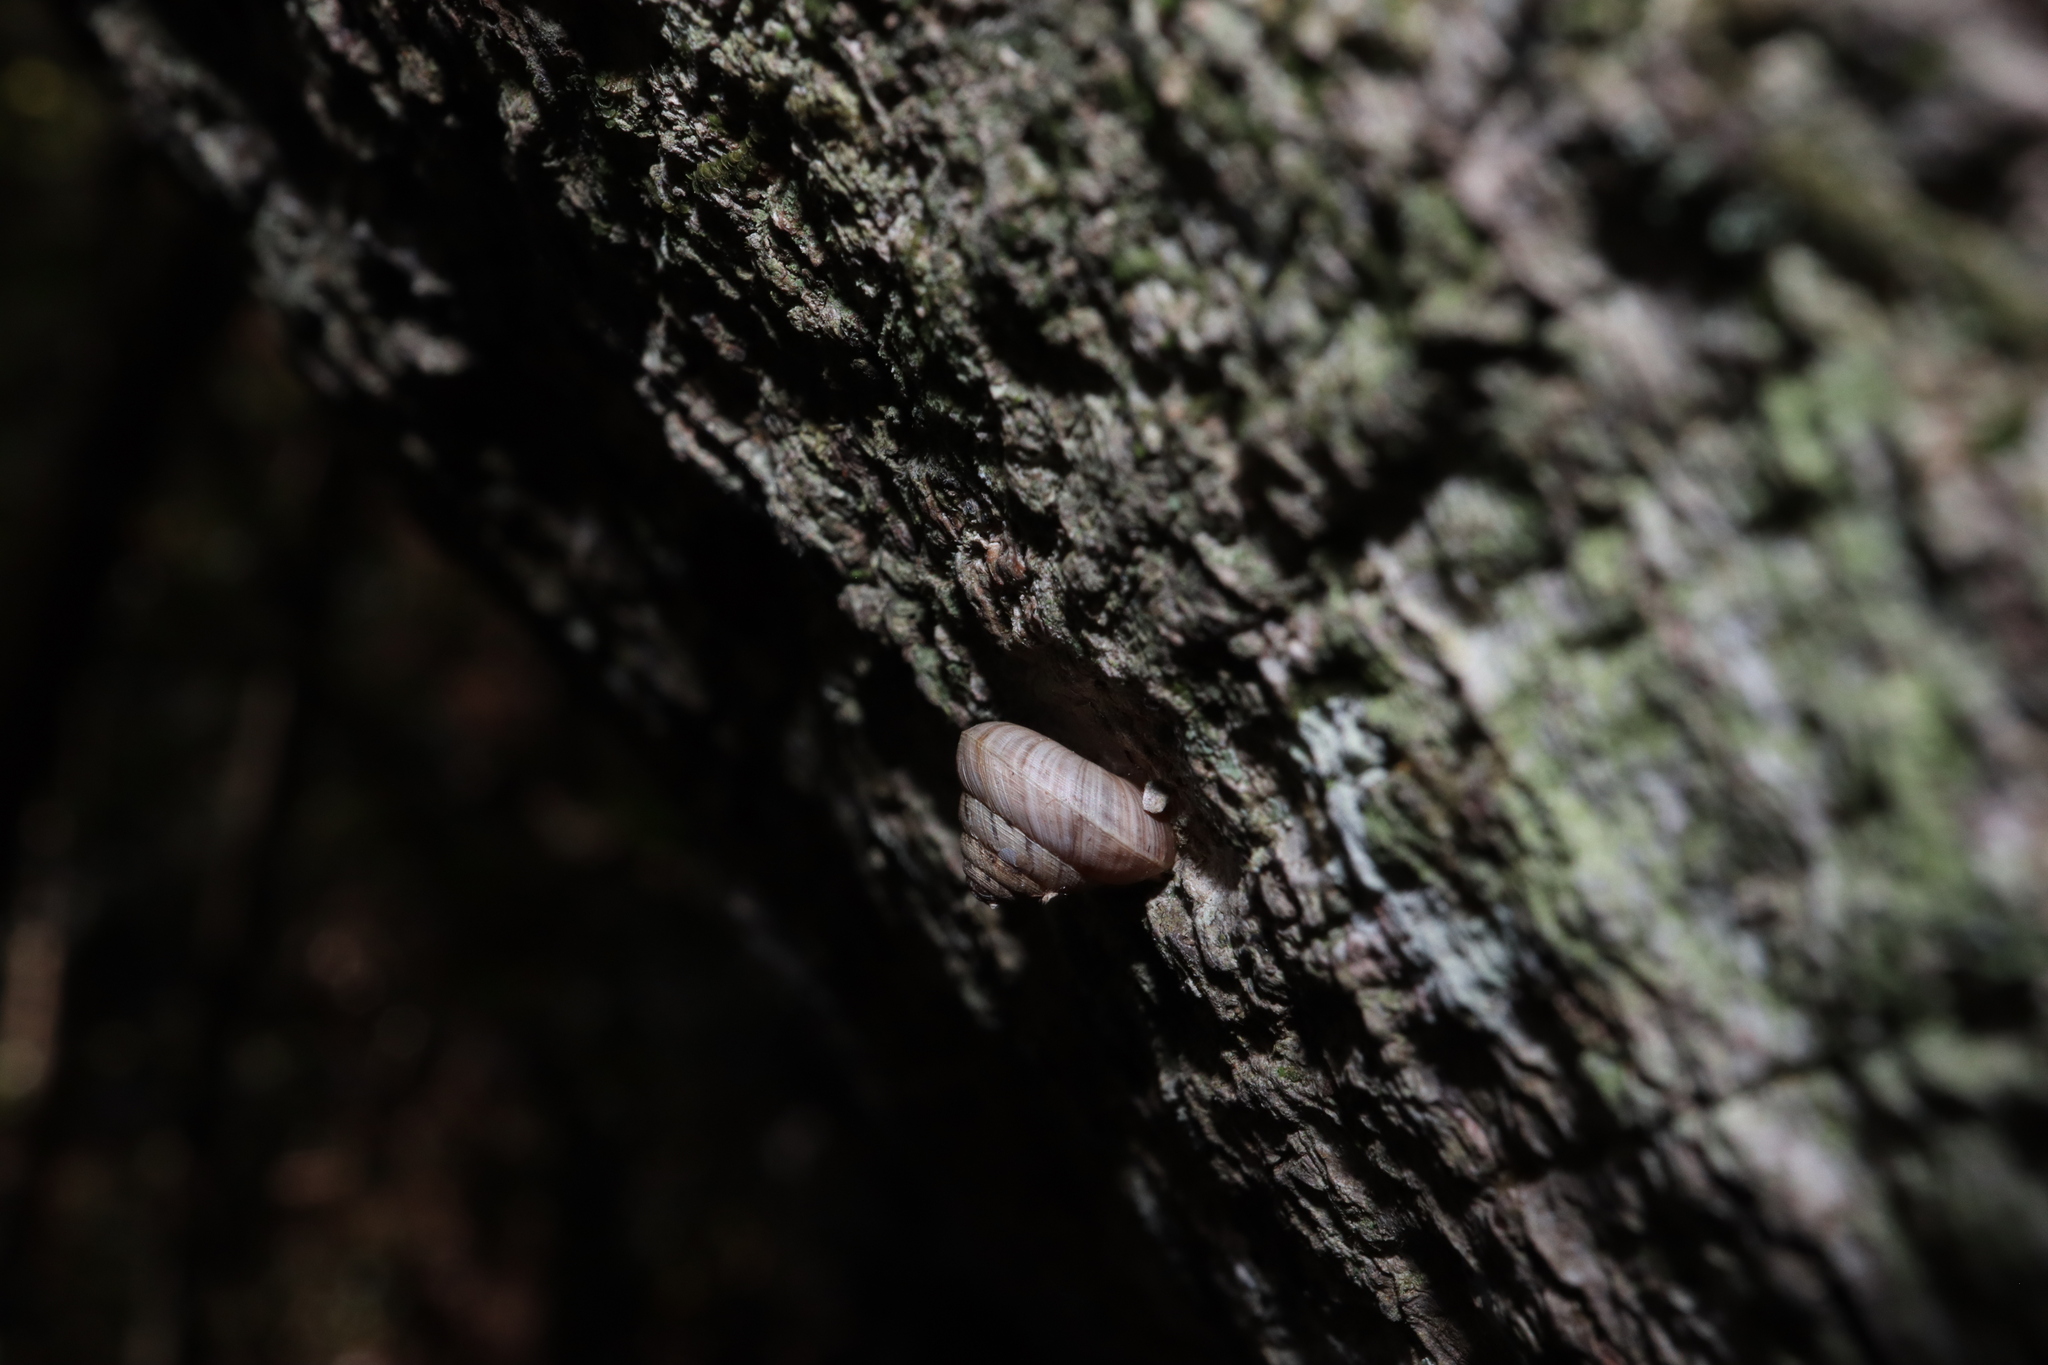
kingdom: Animalia
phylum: Mollusca
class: Gastropoda
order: Stylommatophora
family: Charopidae
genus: Hedleyoconcha
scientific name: Hedleyoconcha delta
